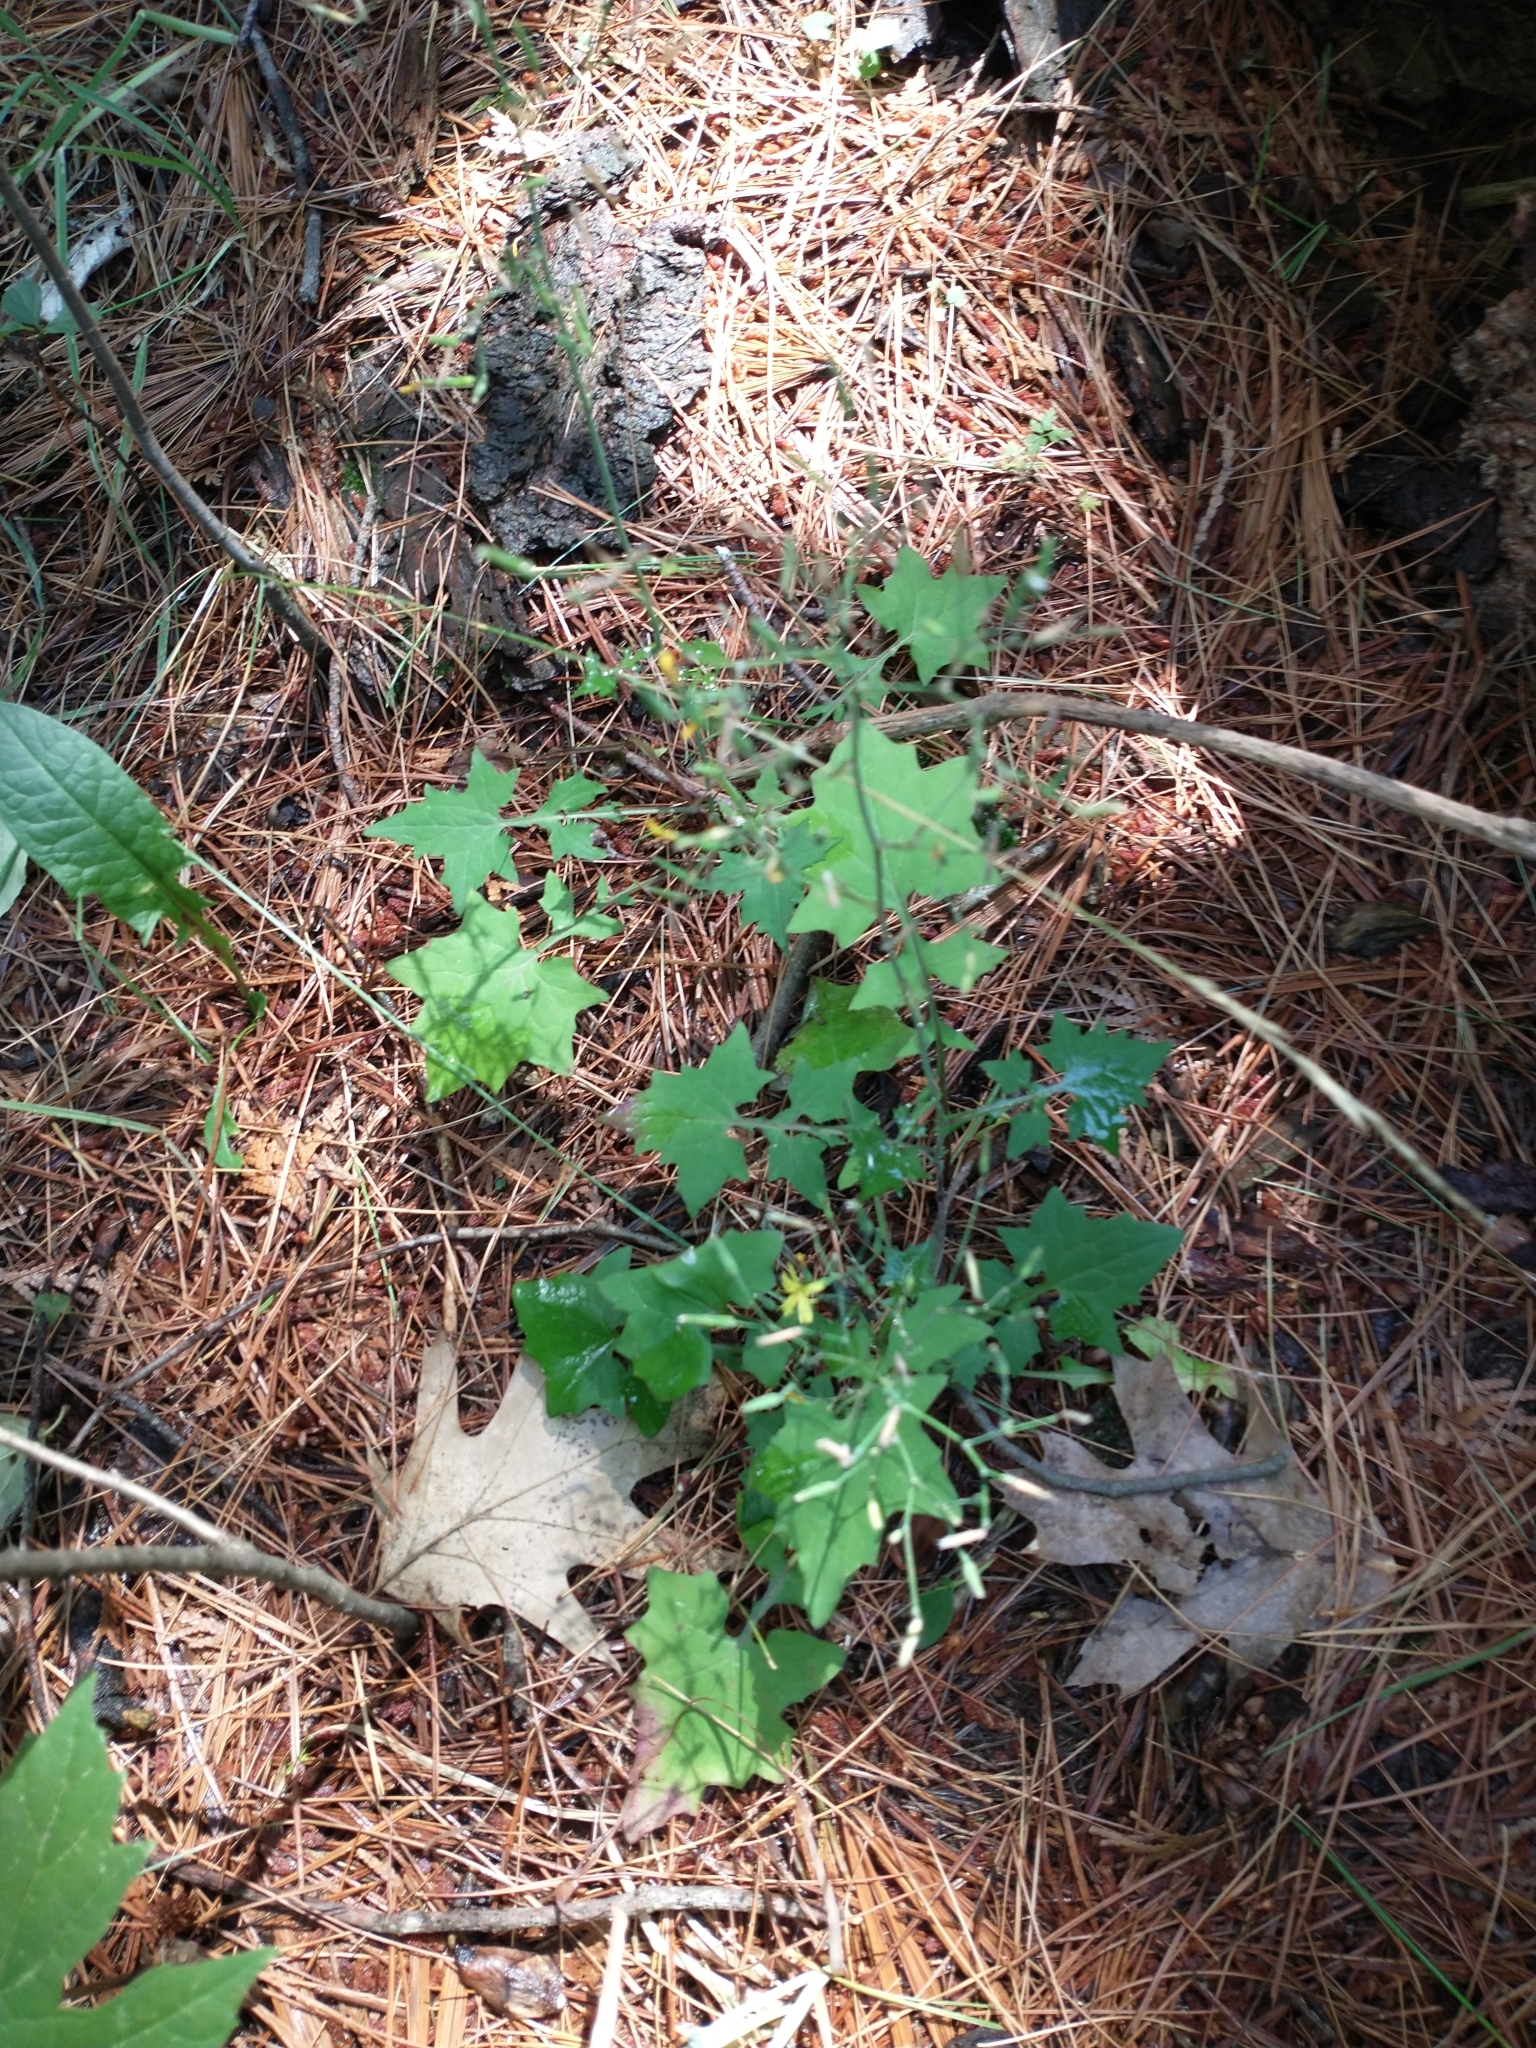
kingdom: Plantae
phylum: Tracheophyta
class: Magnoliopsida
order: Asterales
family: Asteraceae
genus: Mycelis
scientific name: Mycelis muralis
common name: Wall lettuce
